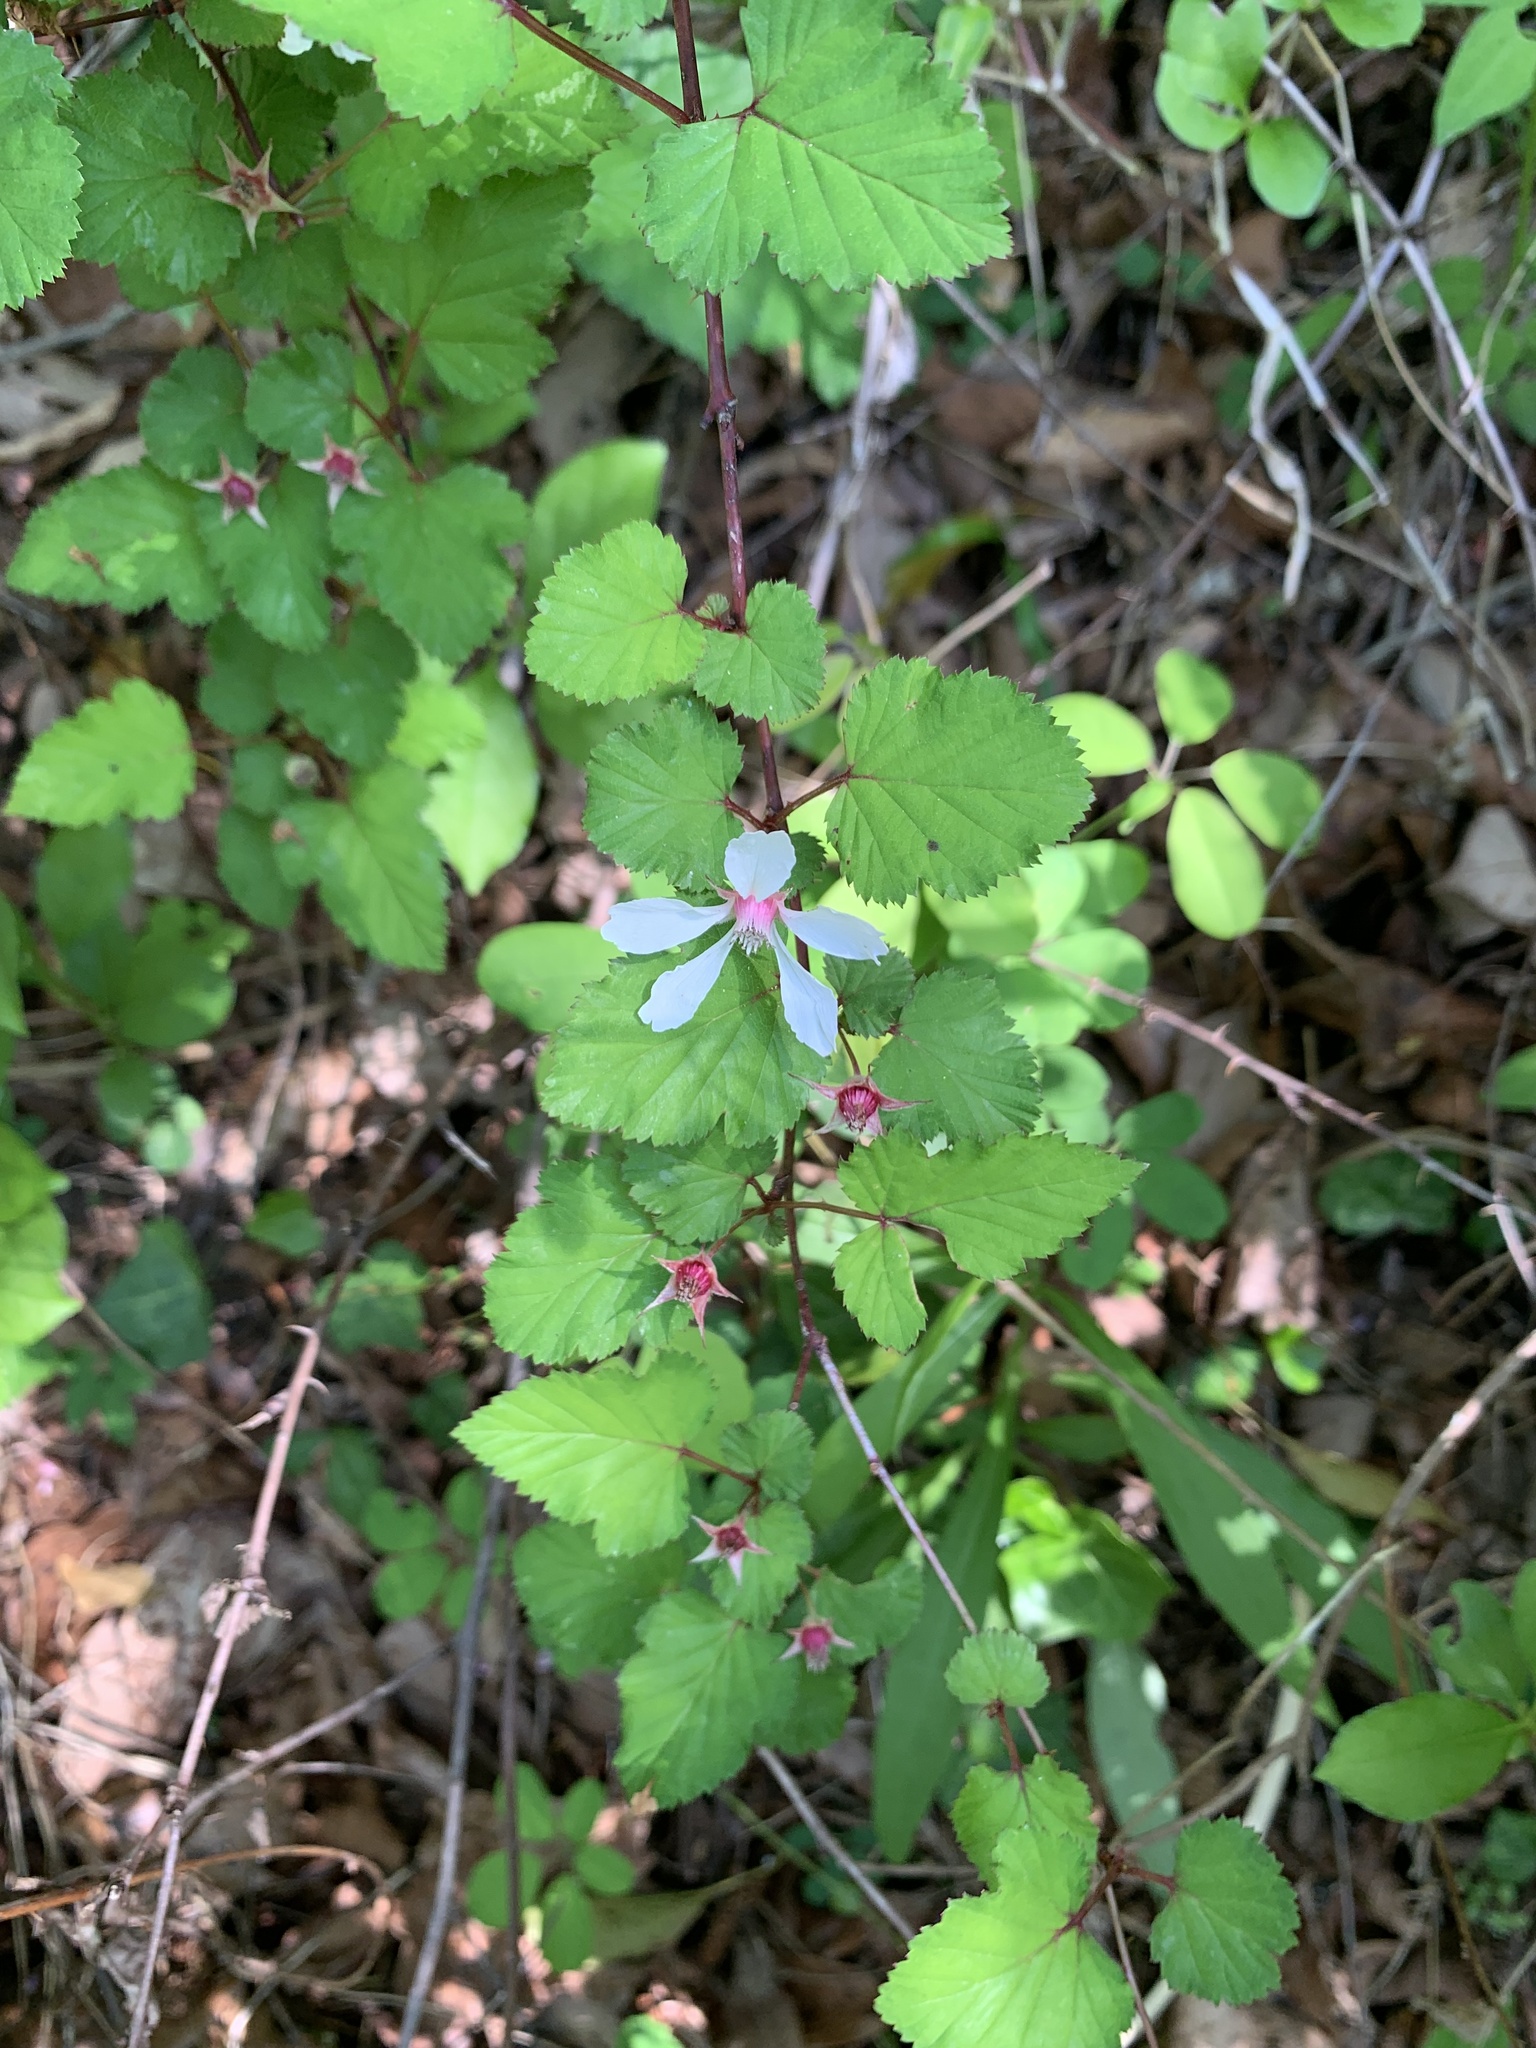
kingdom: Plantae
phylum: Tracheophyta
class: Magnoliopsida
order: Rosales
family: Rosaceae
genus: Rubus
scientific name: Rubus microphyllus
